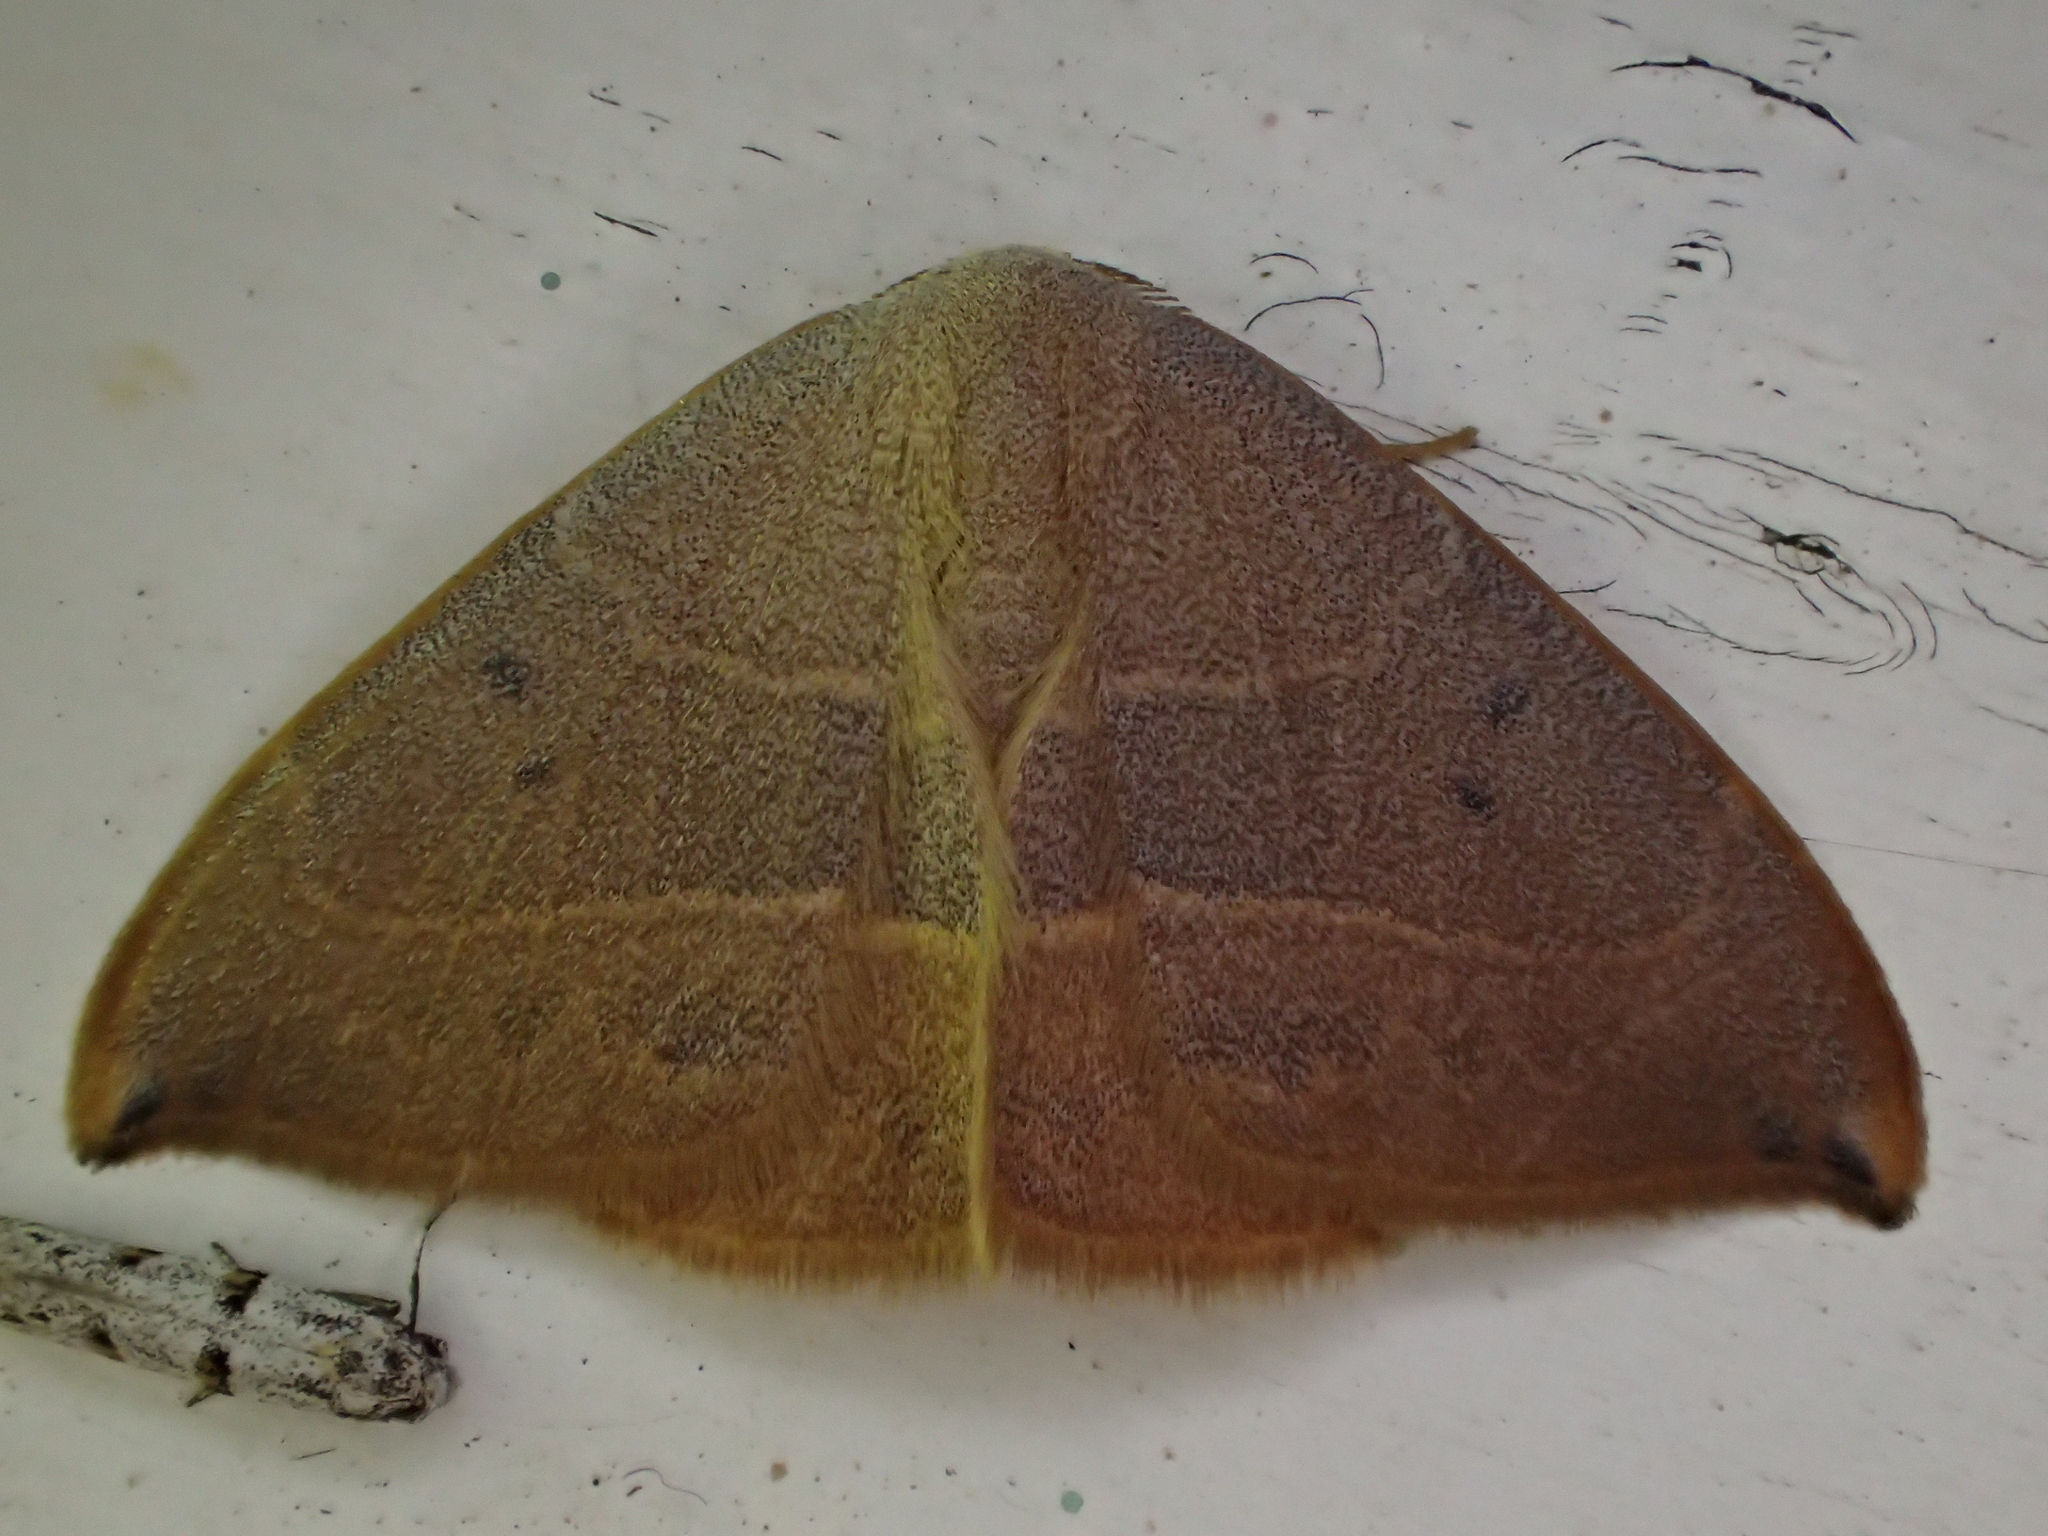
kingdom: Animalia
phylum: Arthropoda
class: Insecta
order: Lepidoptera
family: Drepanidae
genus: Watsonalla
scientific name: Watsonalla uncinula
